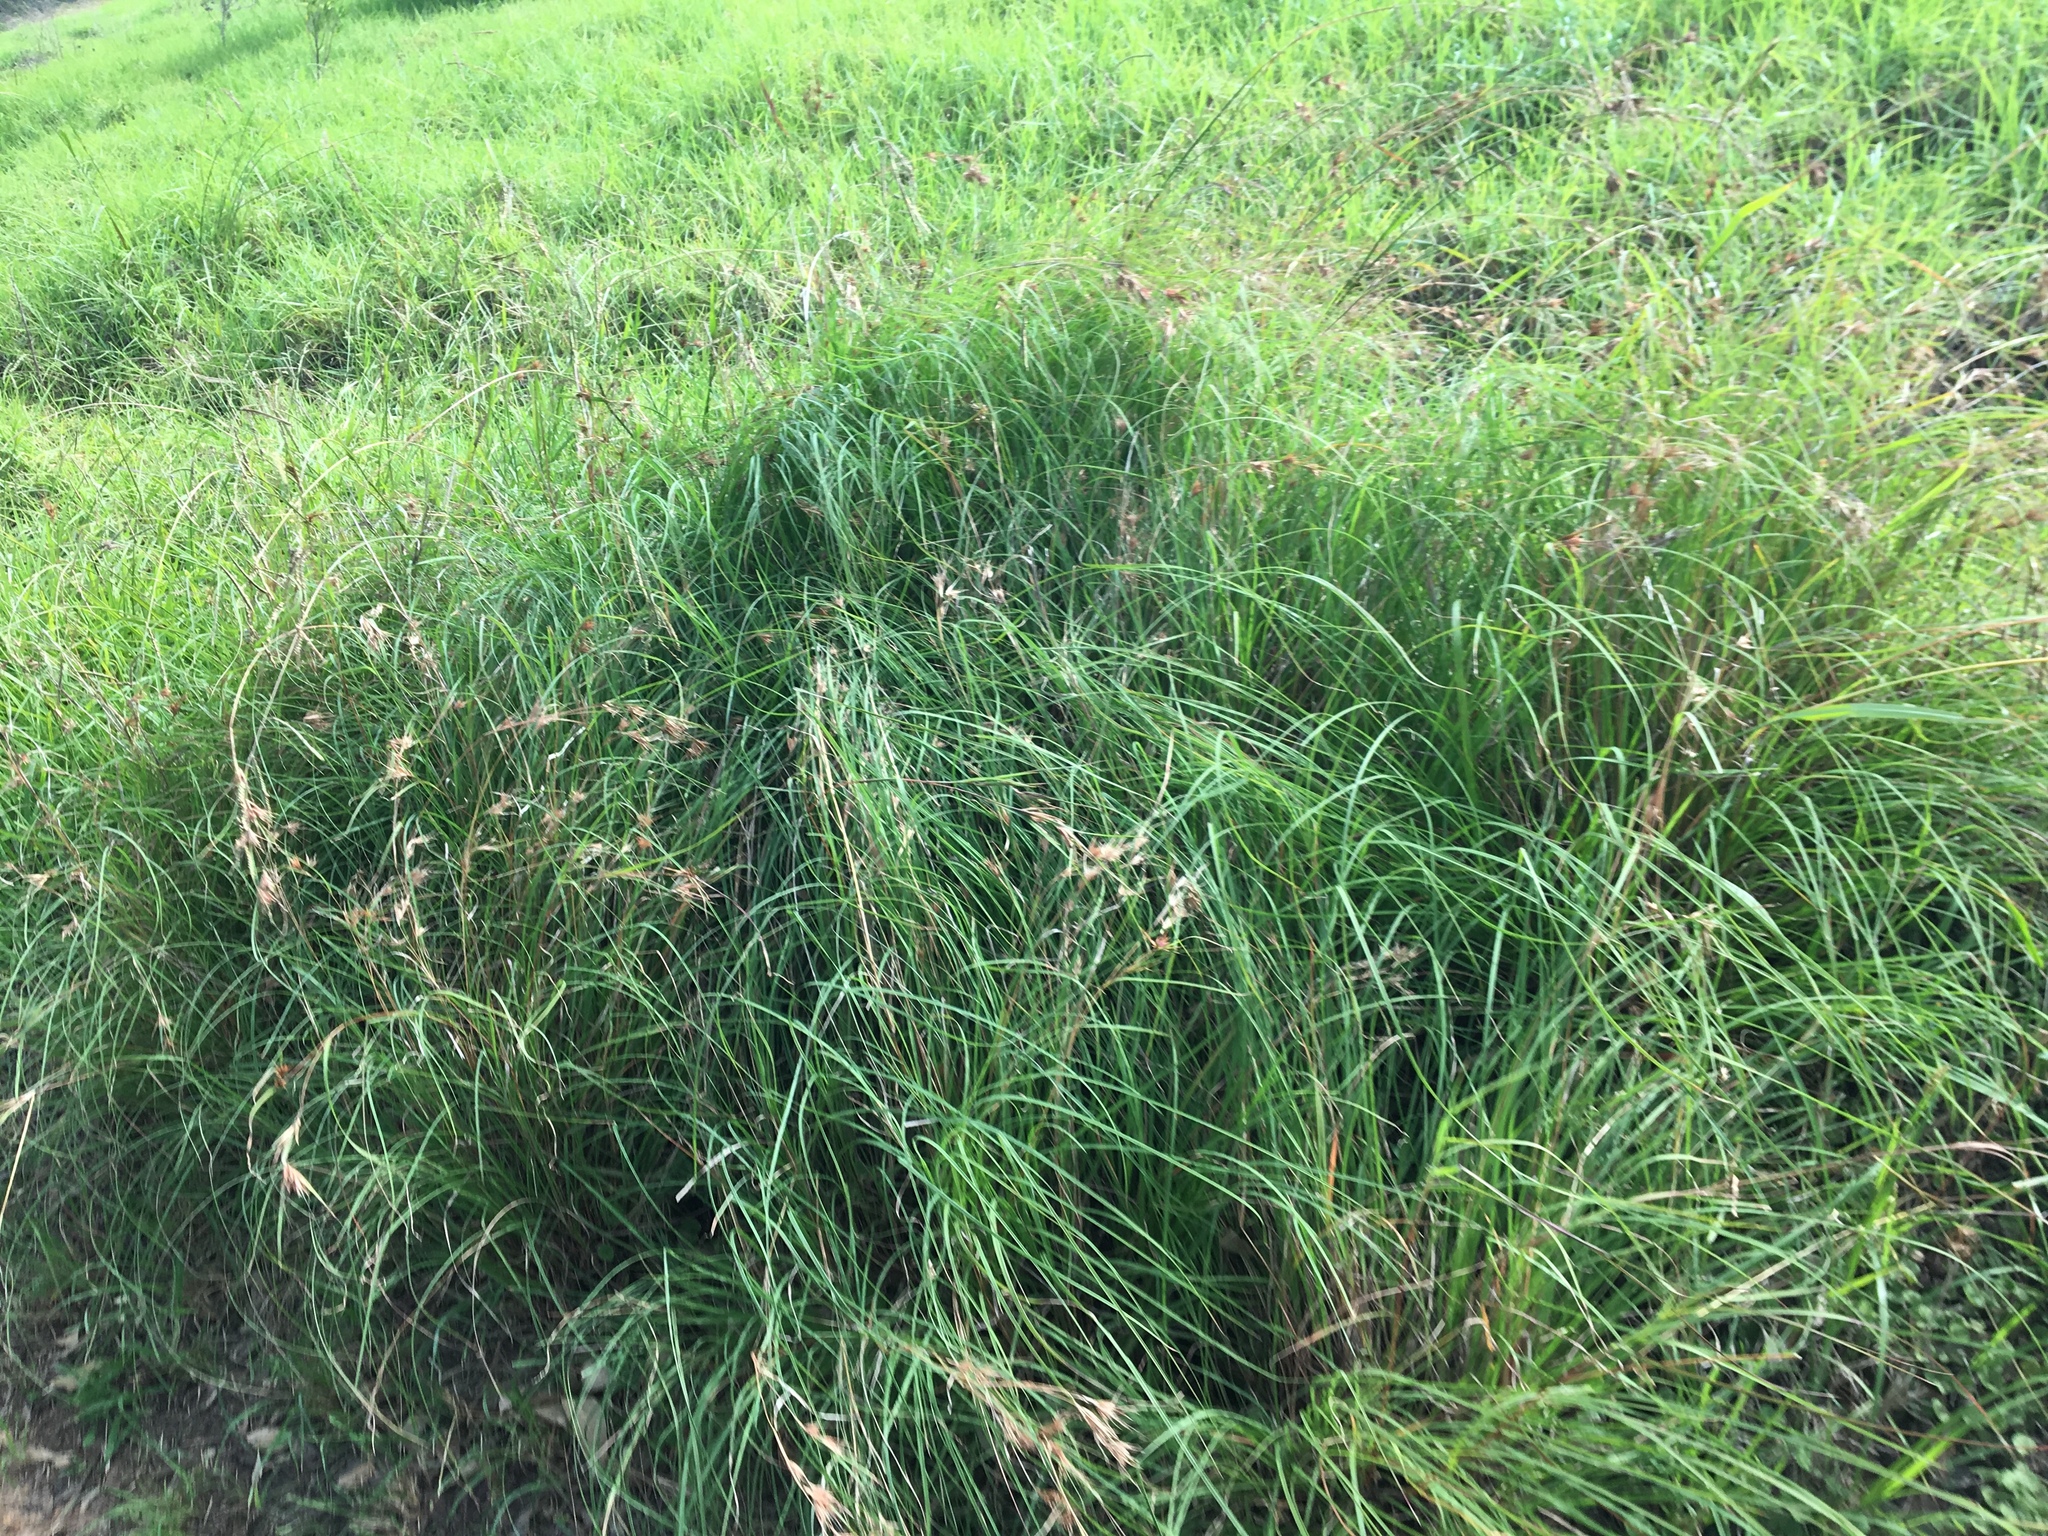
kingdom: Plantae
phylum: Tracheophyta
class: Liliopsida
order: Poales
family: Poaceae
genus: Themeda
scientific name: Themeda triandra
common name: Kangaroo grass
